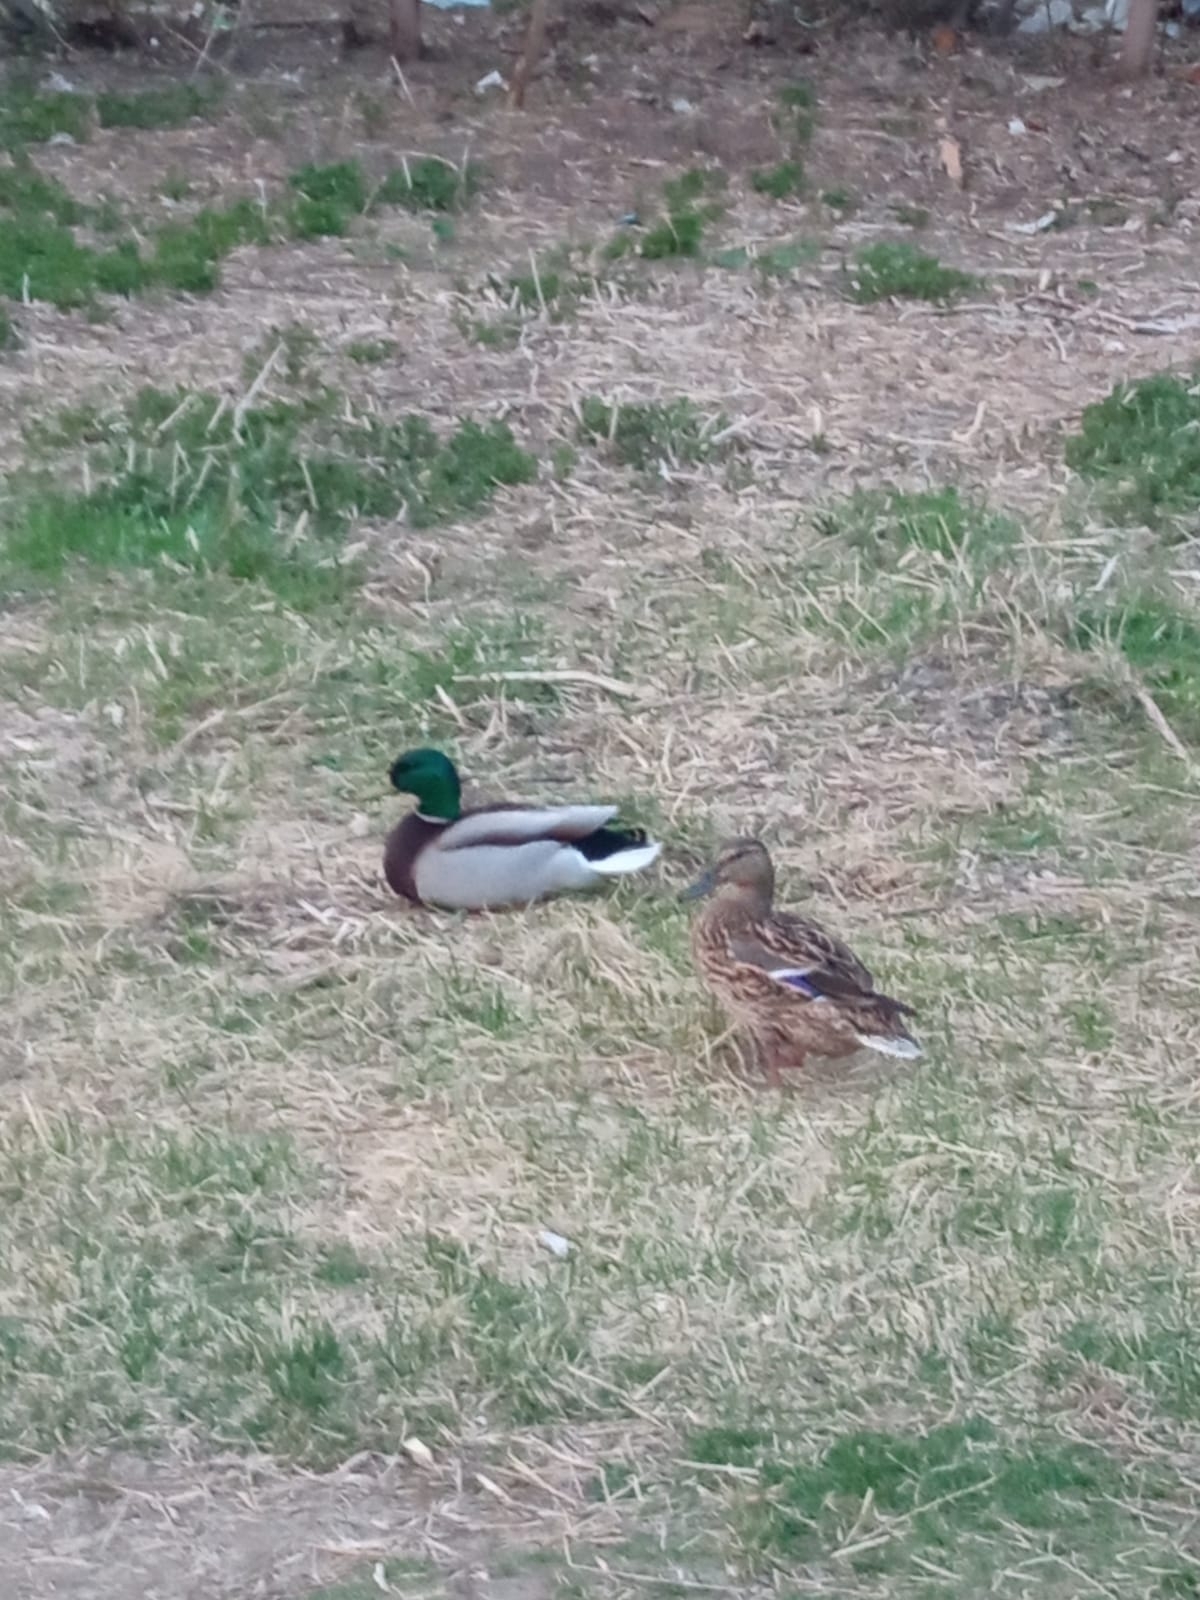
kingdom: Animalia
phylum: Chordata
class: Aves
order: Anseriformes
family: Anatidae
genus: Anas
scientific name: Anas platyrhynchos
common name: Mallard
